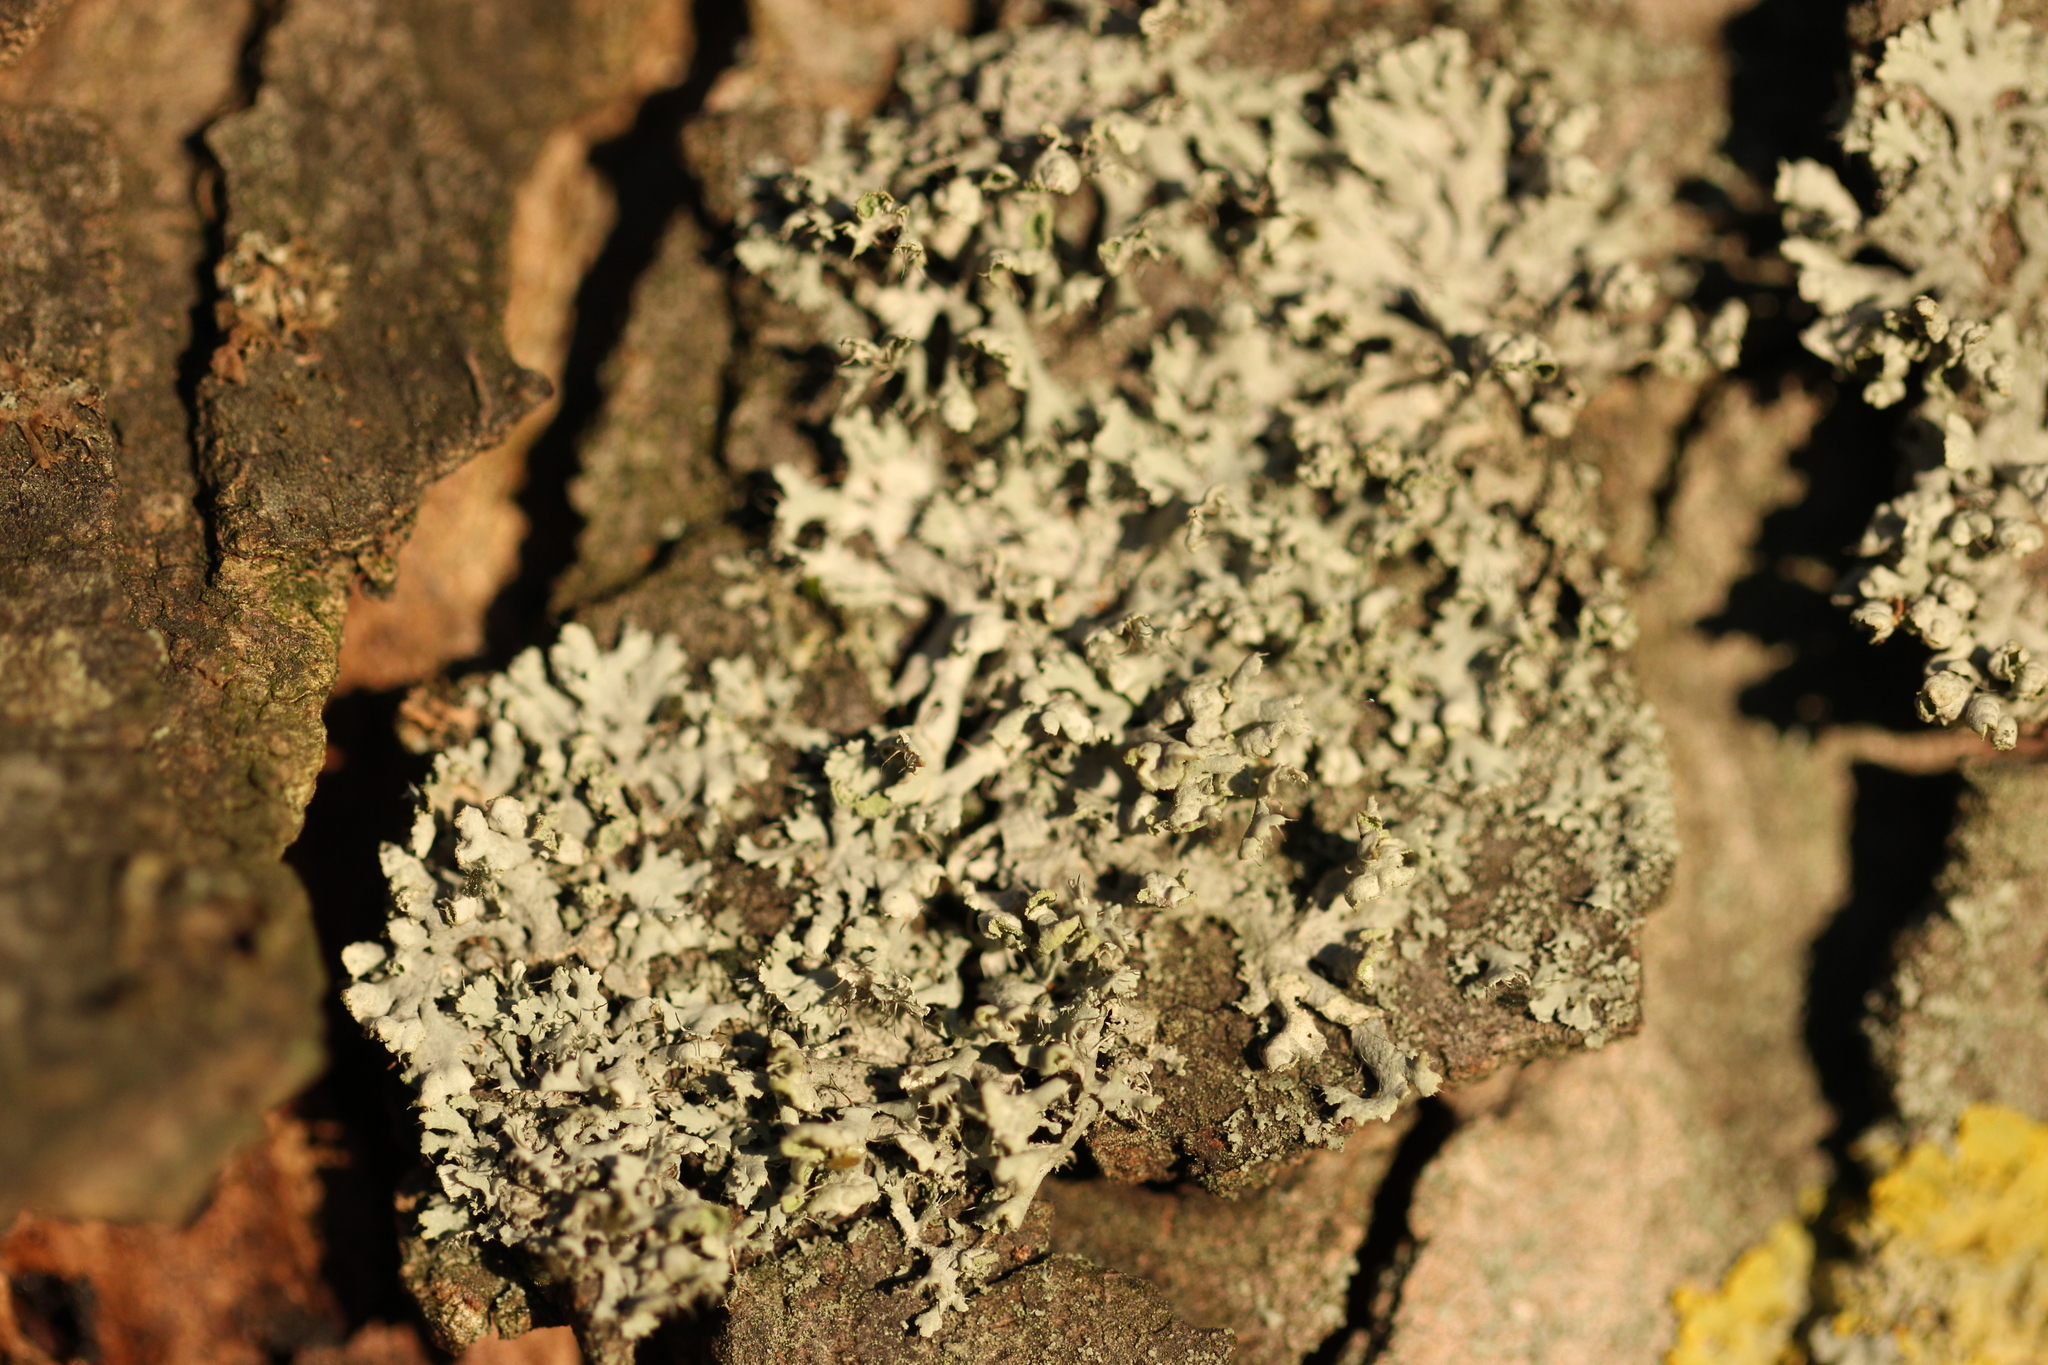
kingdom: Fungi
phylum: Ascomycota
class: Lecanoromycetes
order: Caliciales
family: Physciaceae
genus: Physcia
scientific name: Physcia adscendens
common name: Hooded rosette lichen
